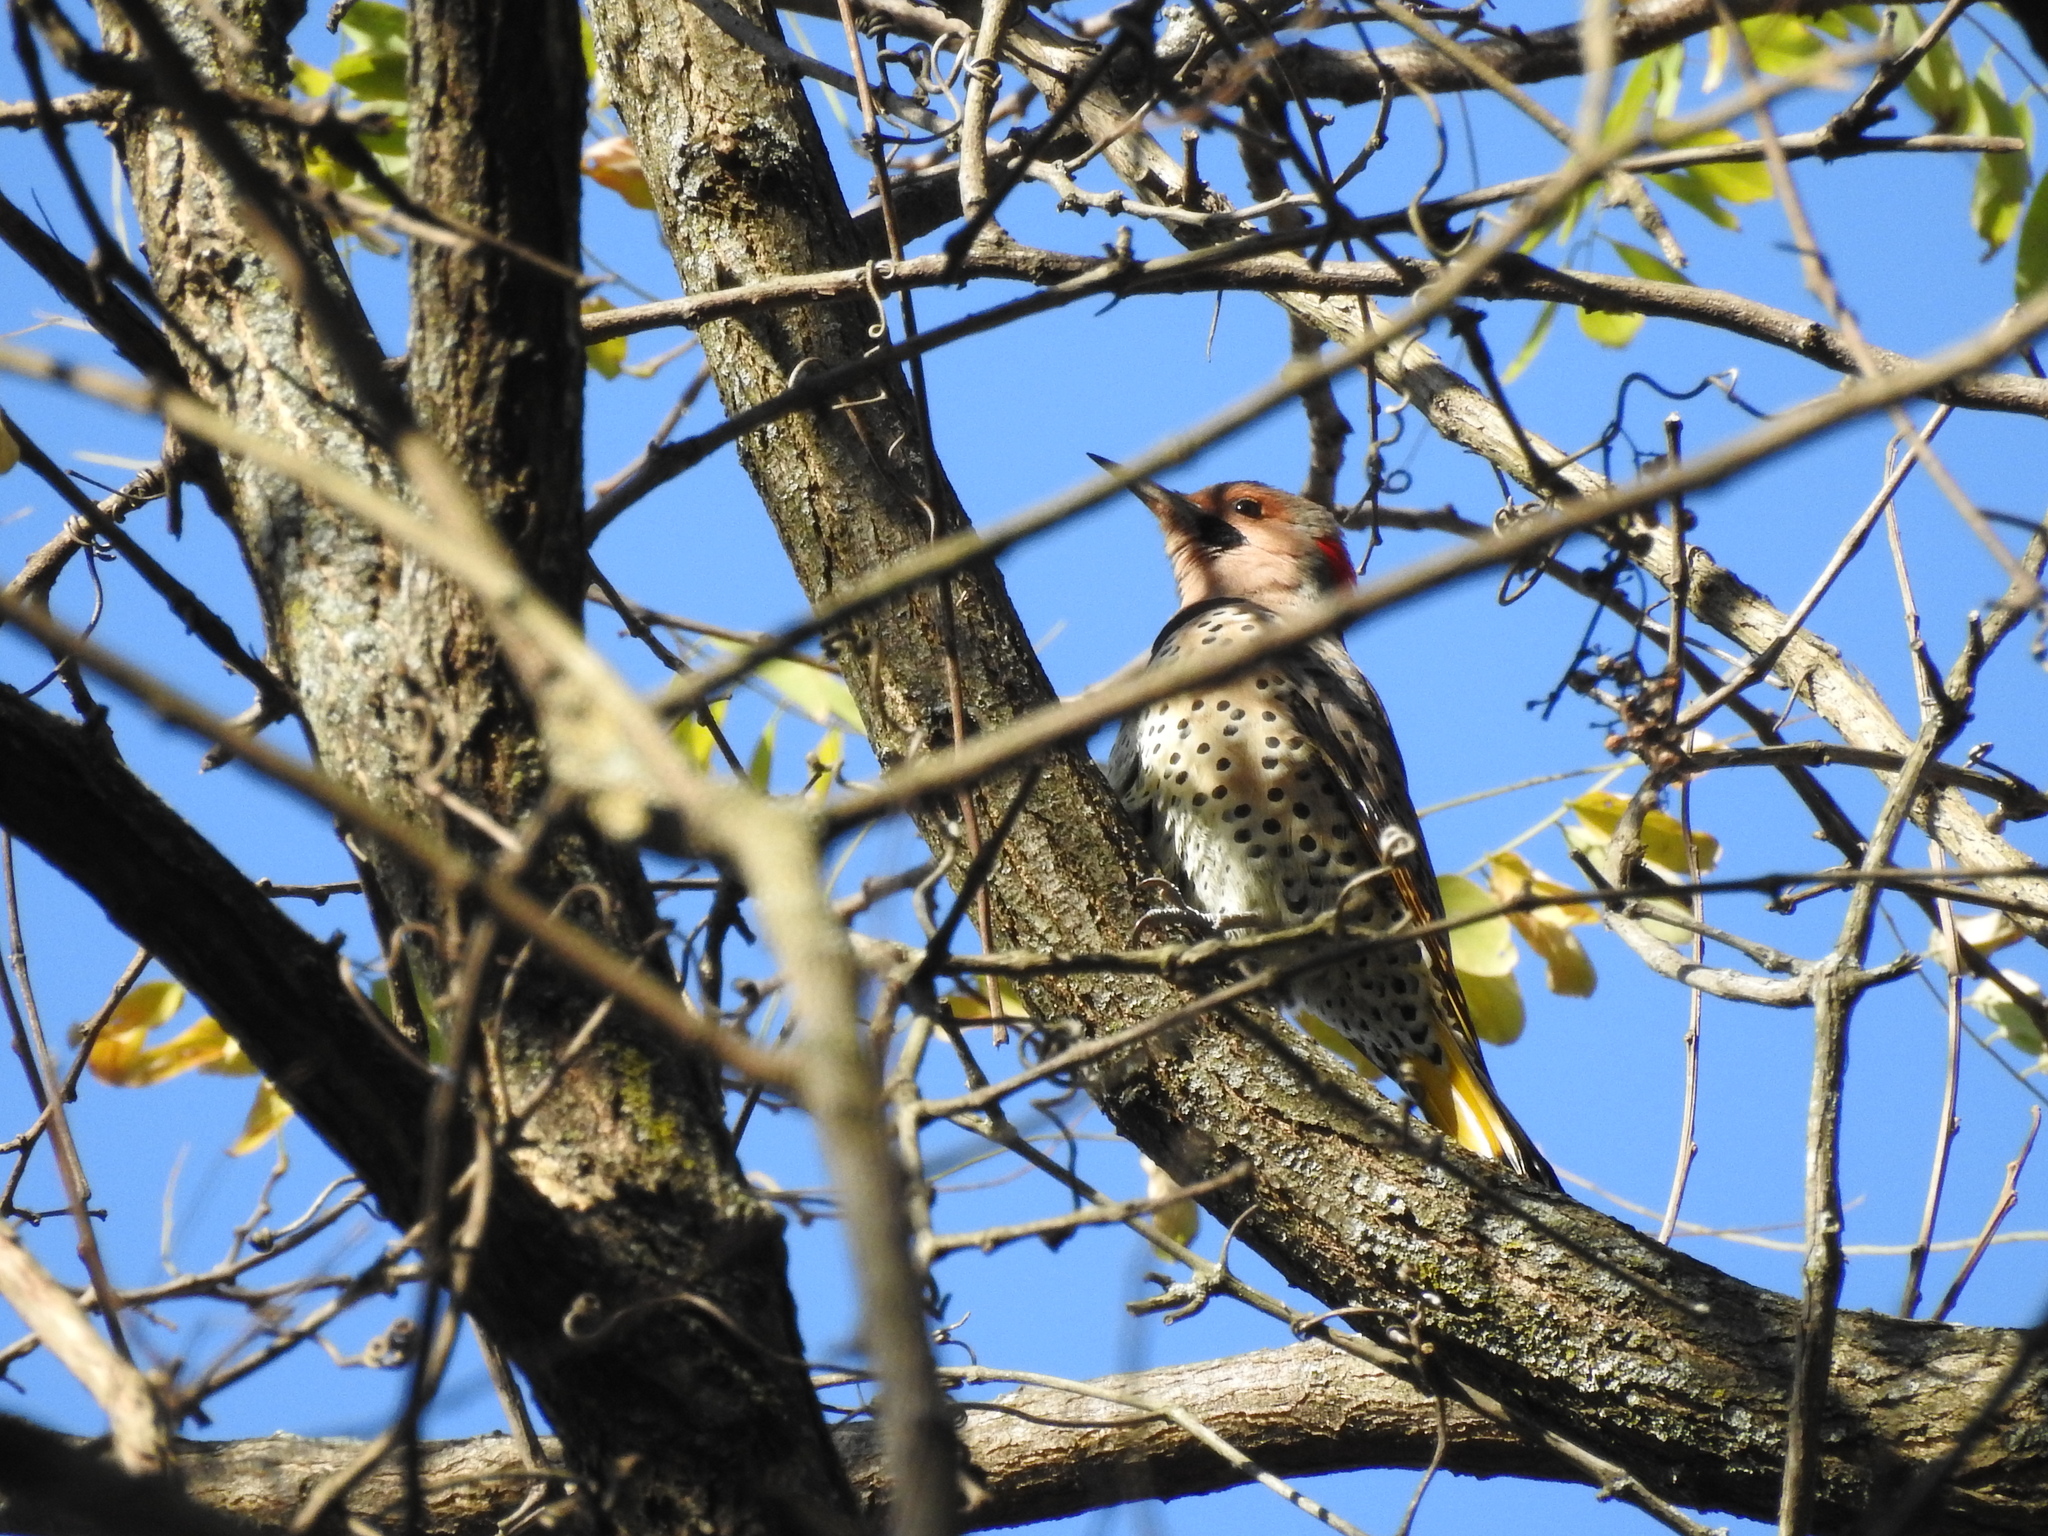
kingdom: Animalia
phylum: Chordata
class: Aves
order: Piciformes
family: Picidae
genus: Colaptes
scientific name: Colaptes auratus
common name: Northern flicker
